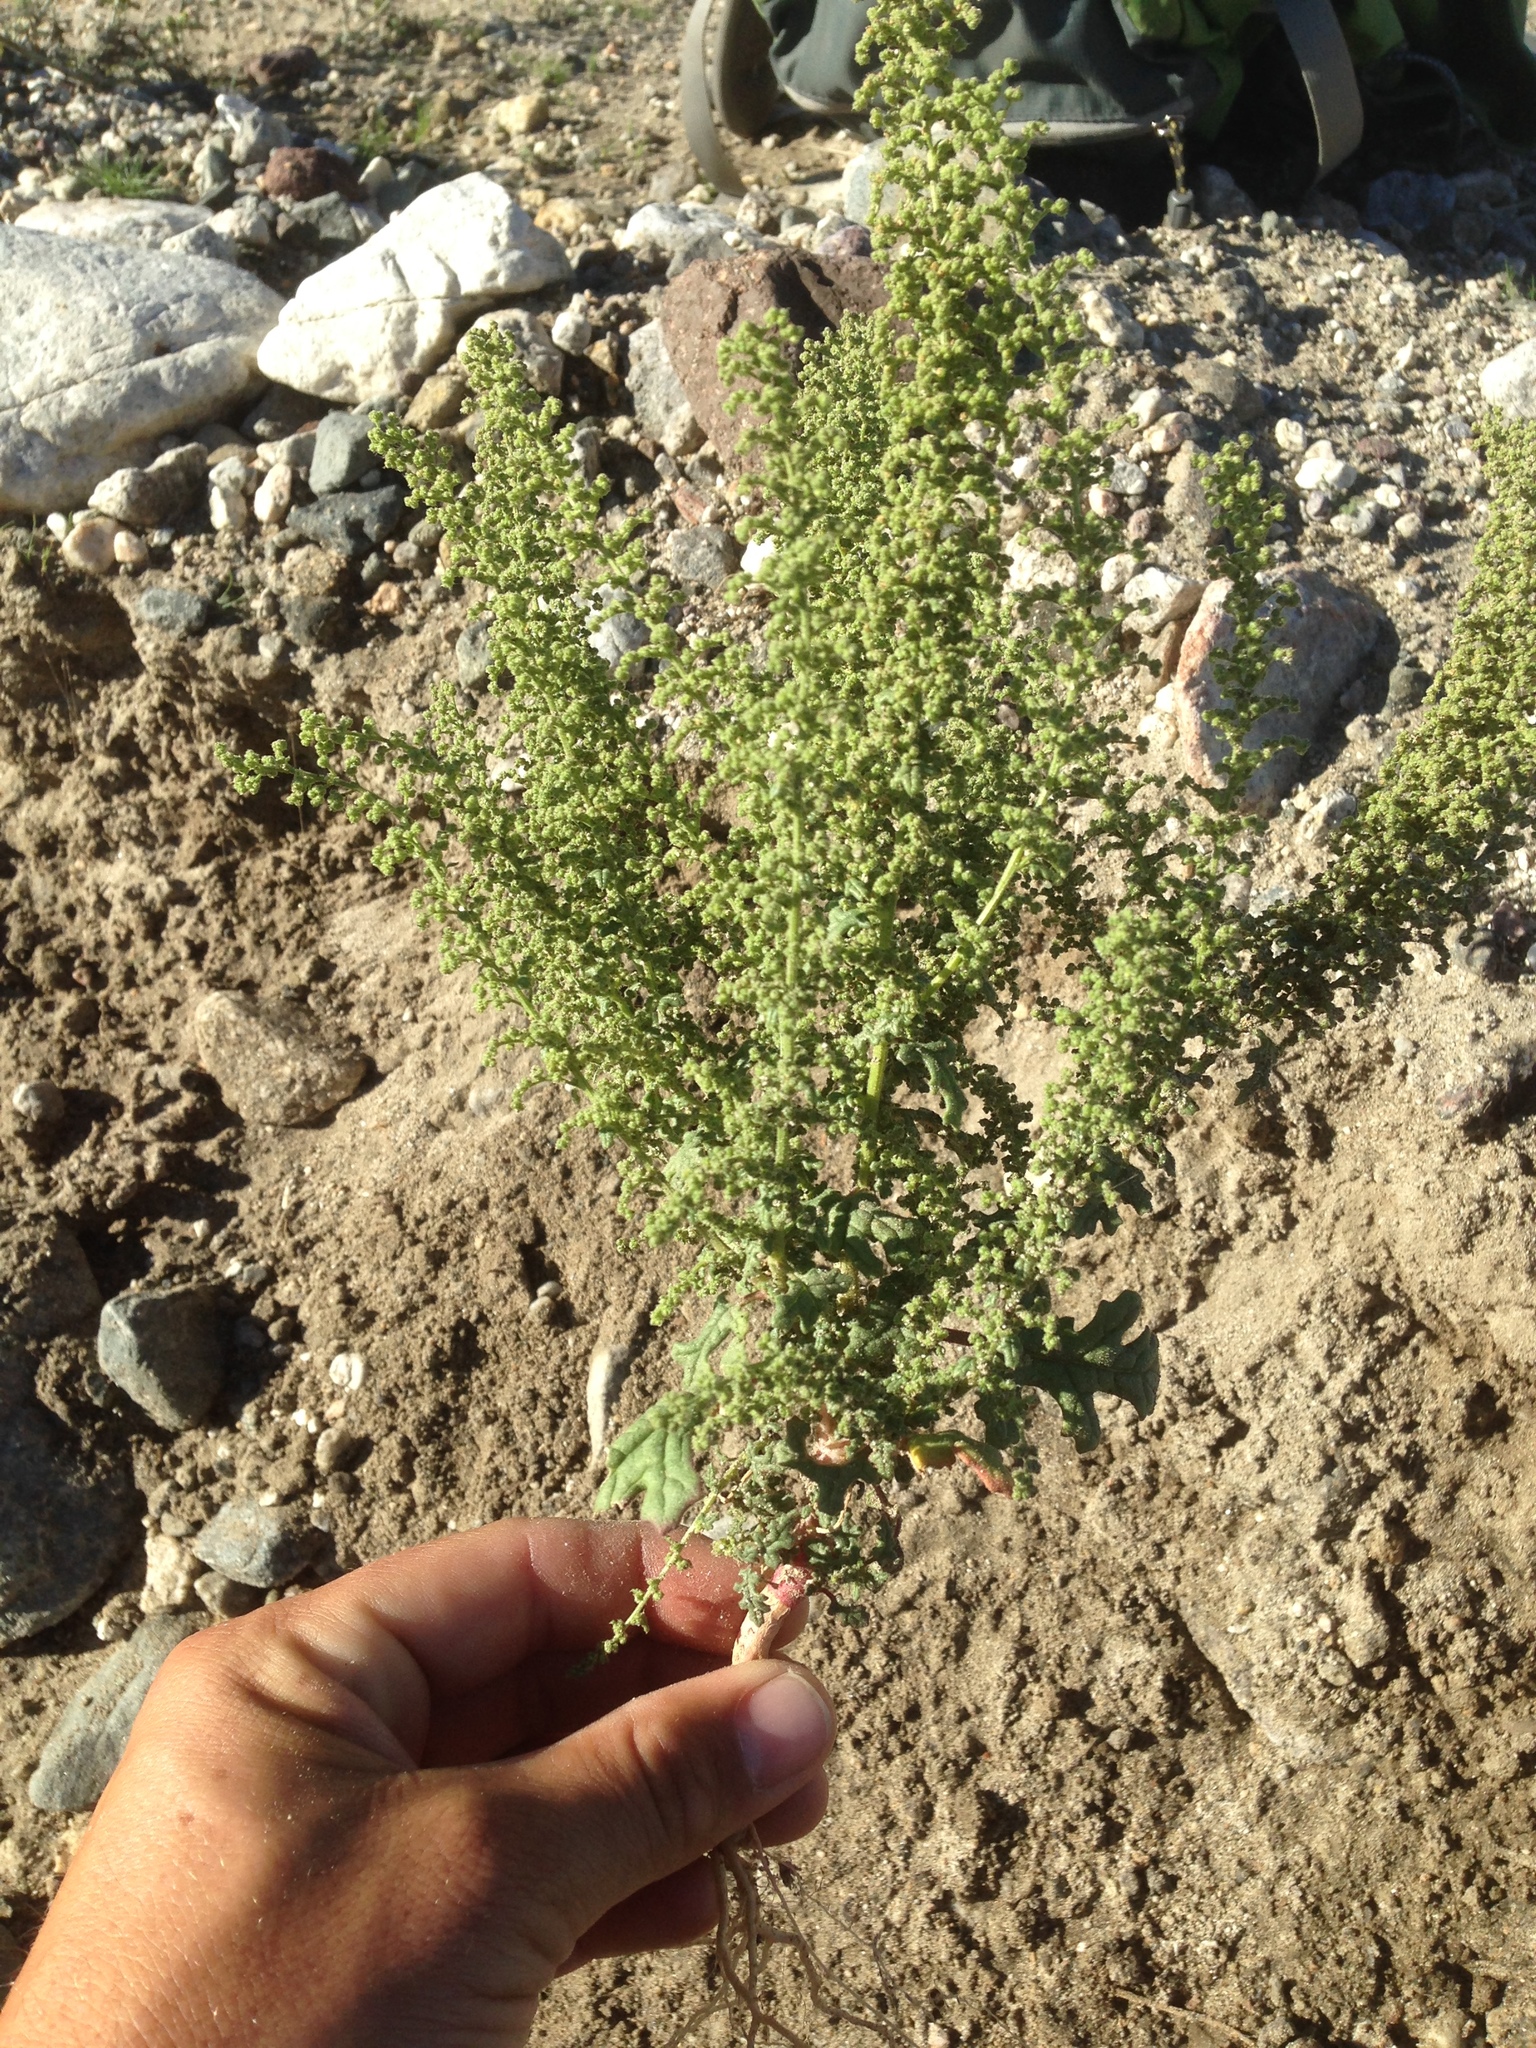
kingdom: Plantae
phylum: Tracheophyta
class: Magnoliopsida
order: Caryophyllales
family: Amaranthaceae
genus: Dysphania
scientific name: Dysphania botrys
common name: Feather-geranium
